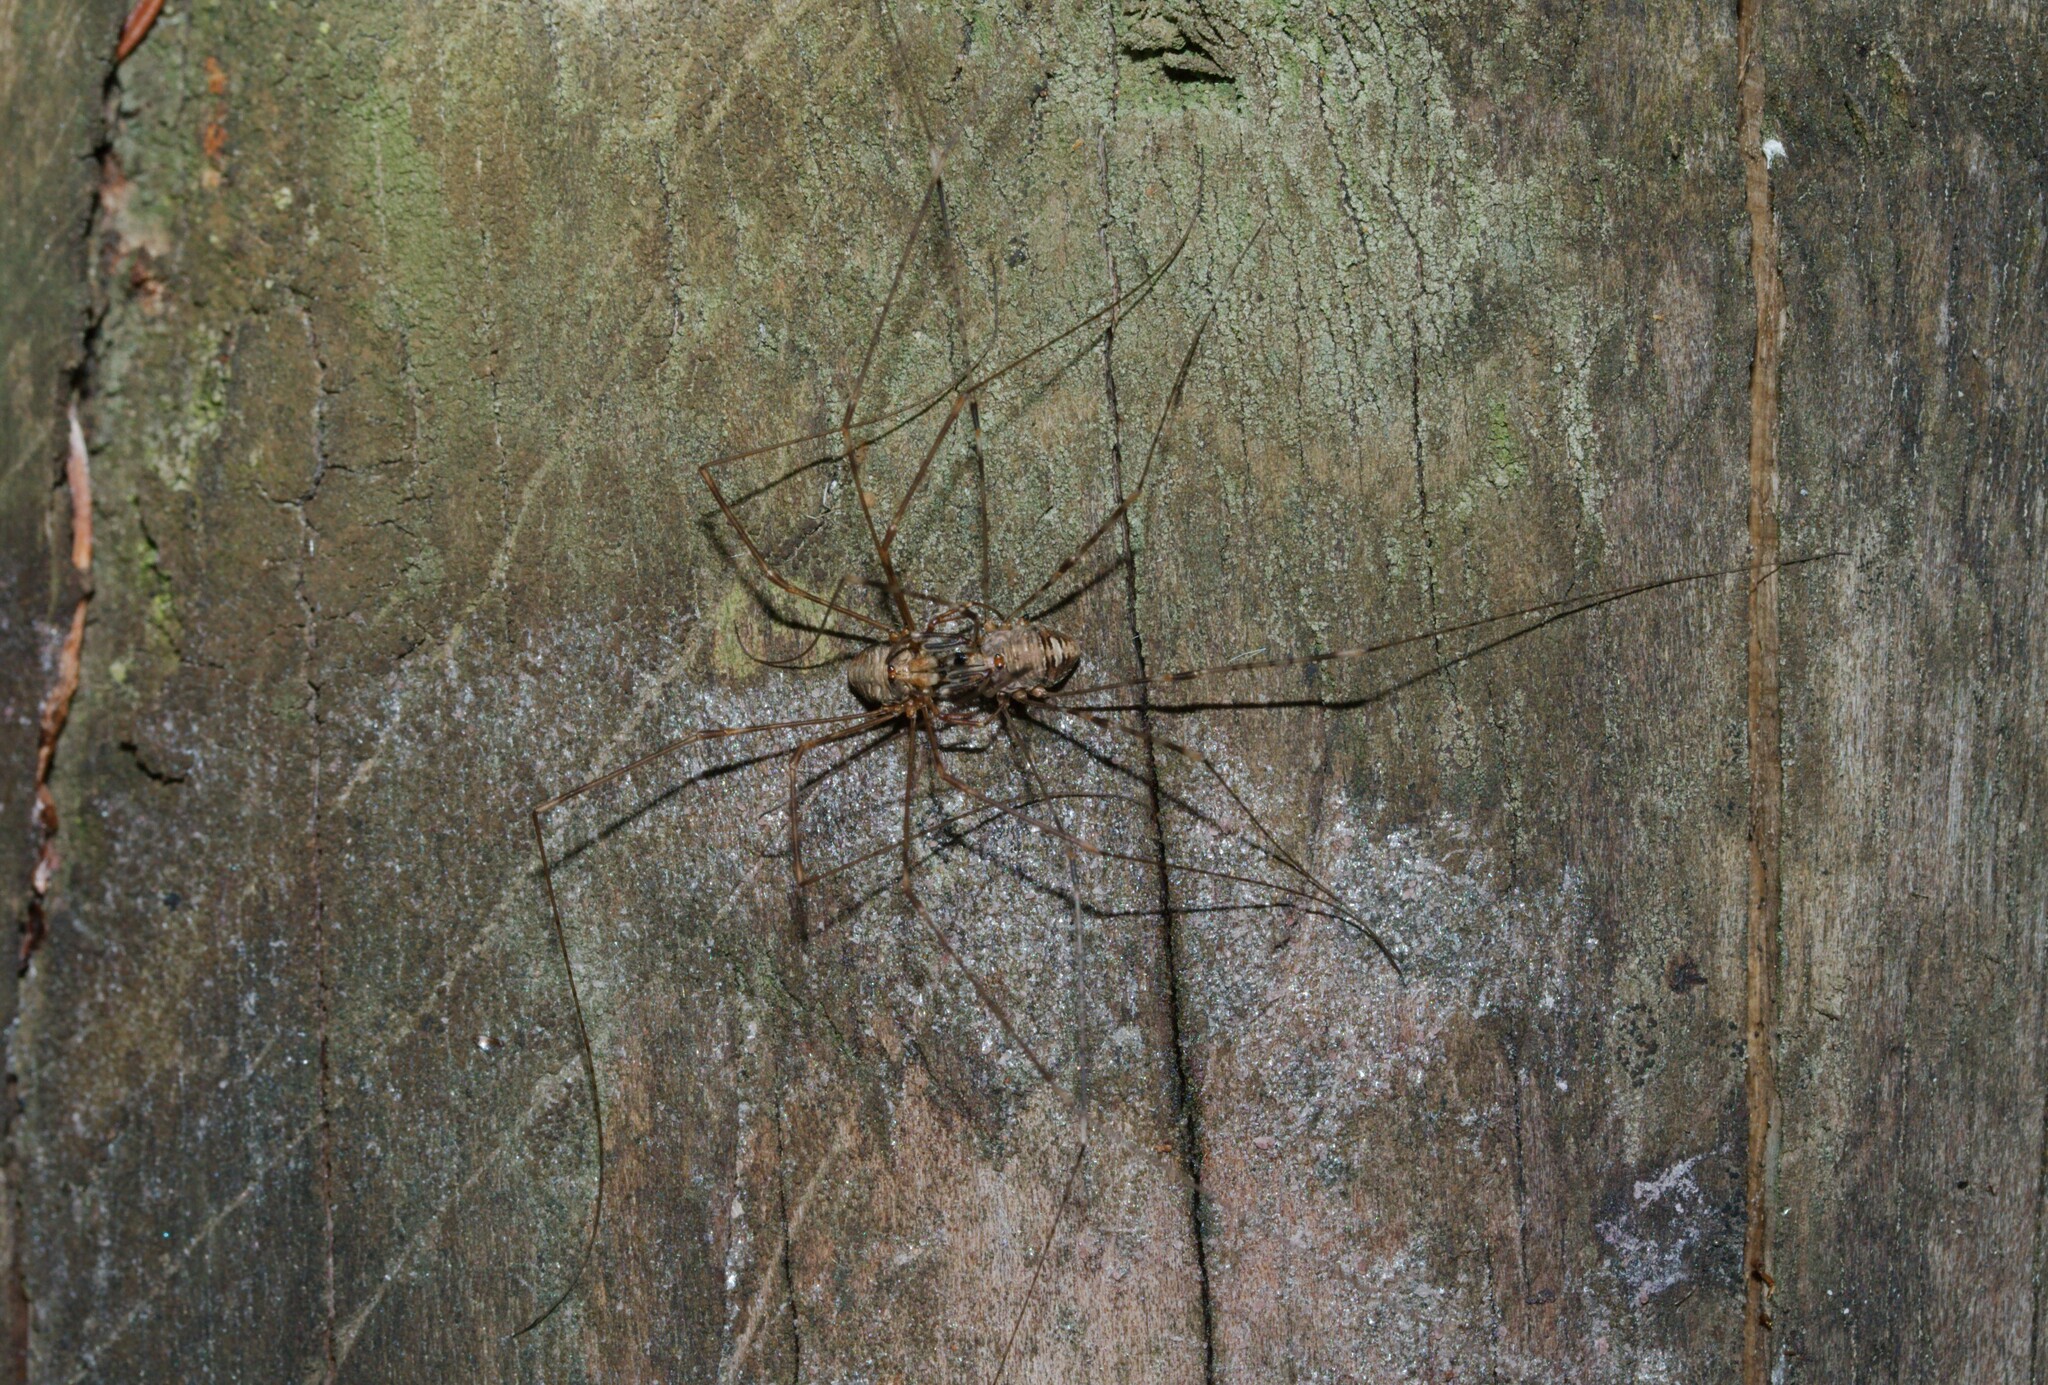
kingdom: Animalia
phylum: Arthropoda
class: Arachnida
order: Opiliones
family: Phalangiidae
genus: Dicranopalpus
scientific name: Dicranopalpus ramosus
